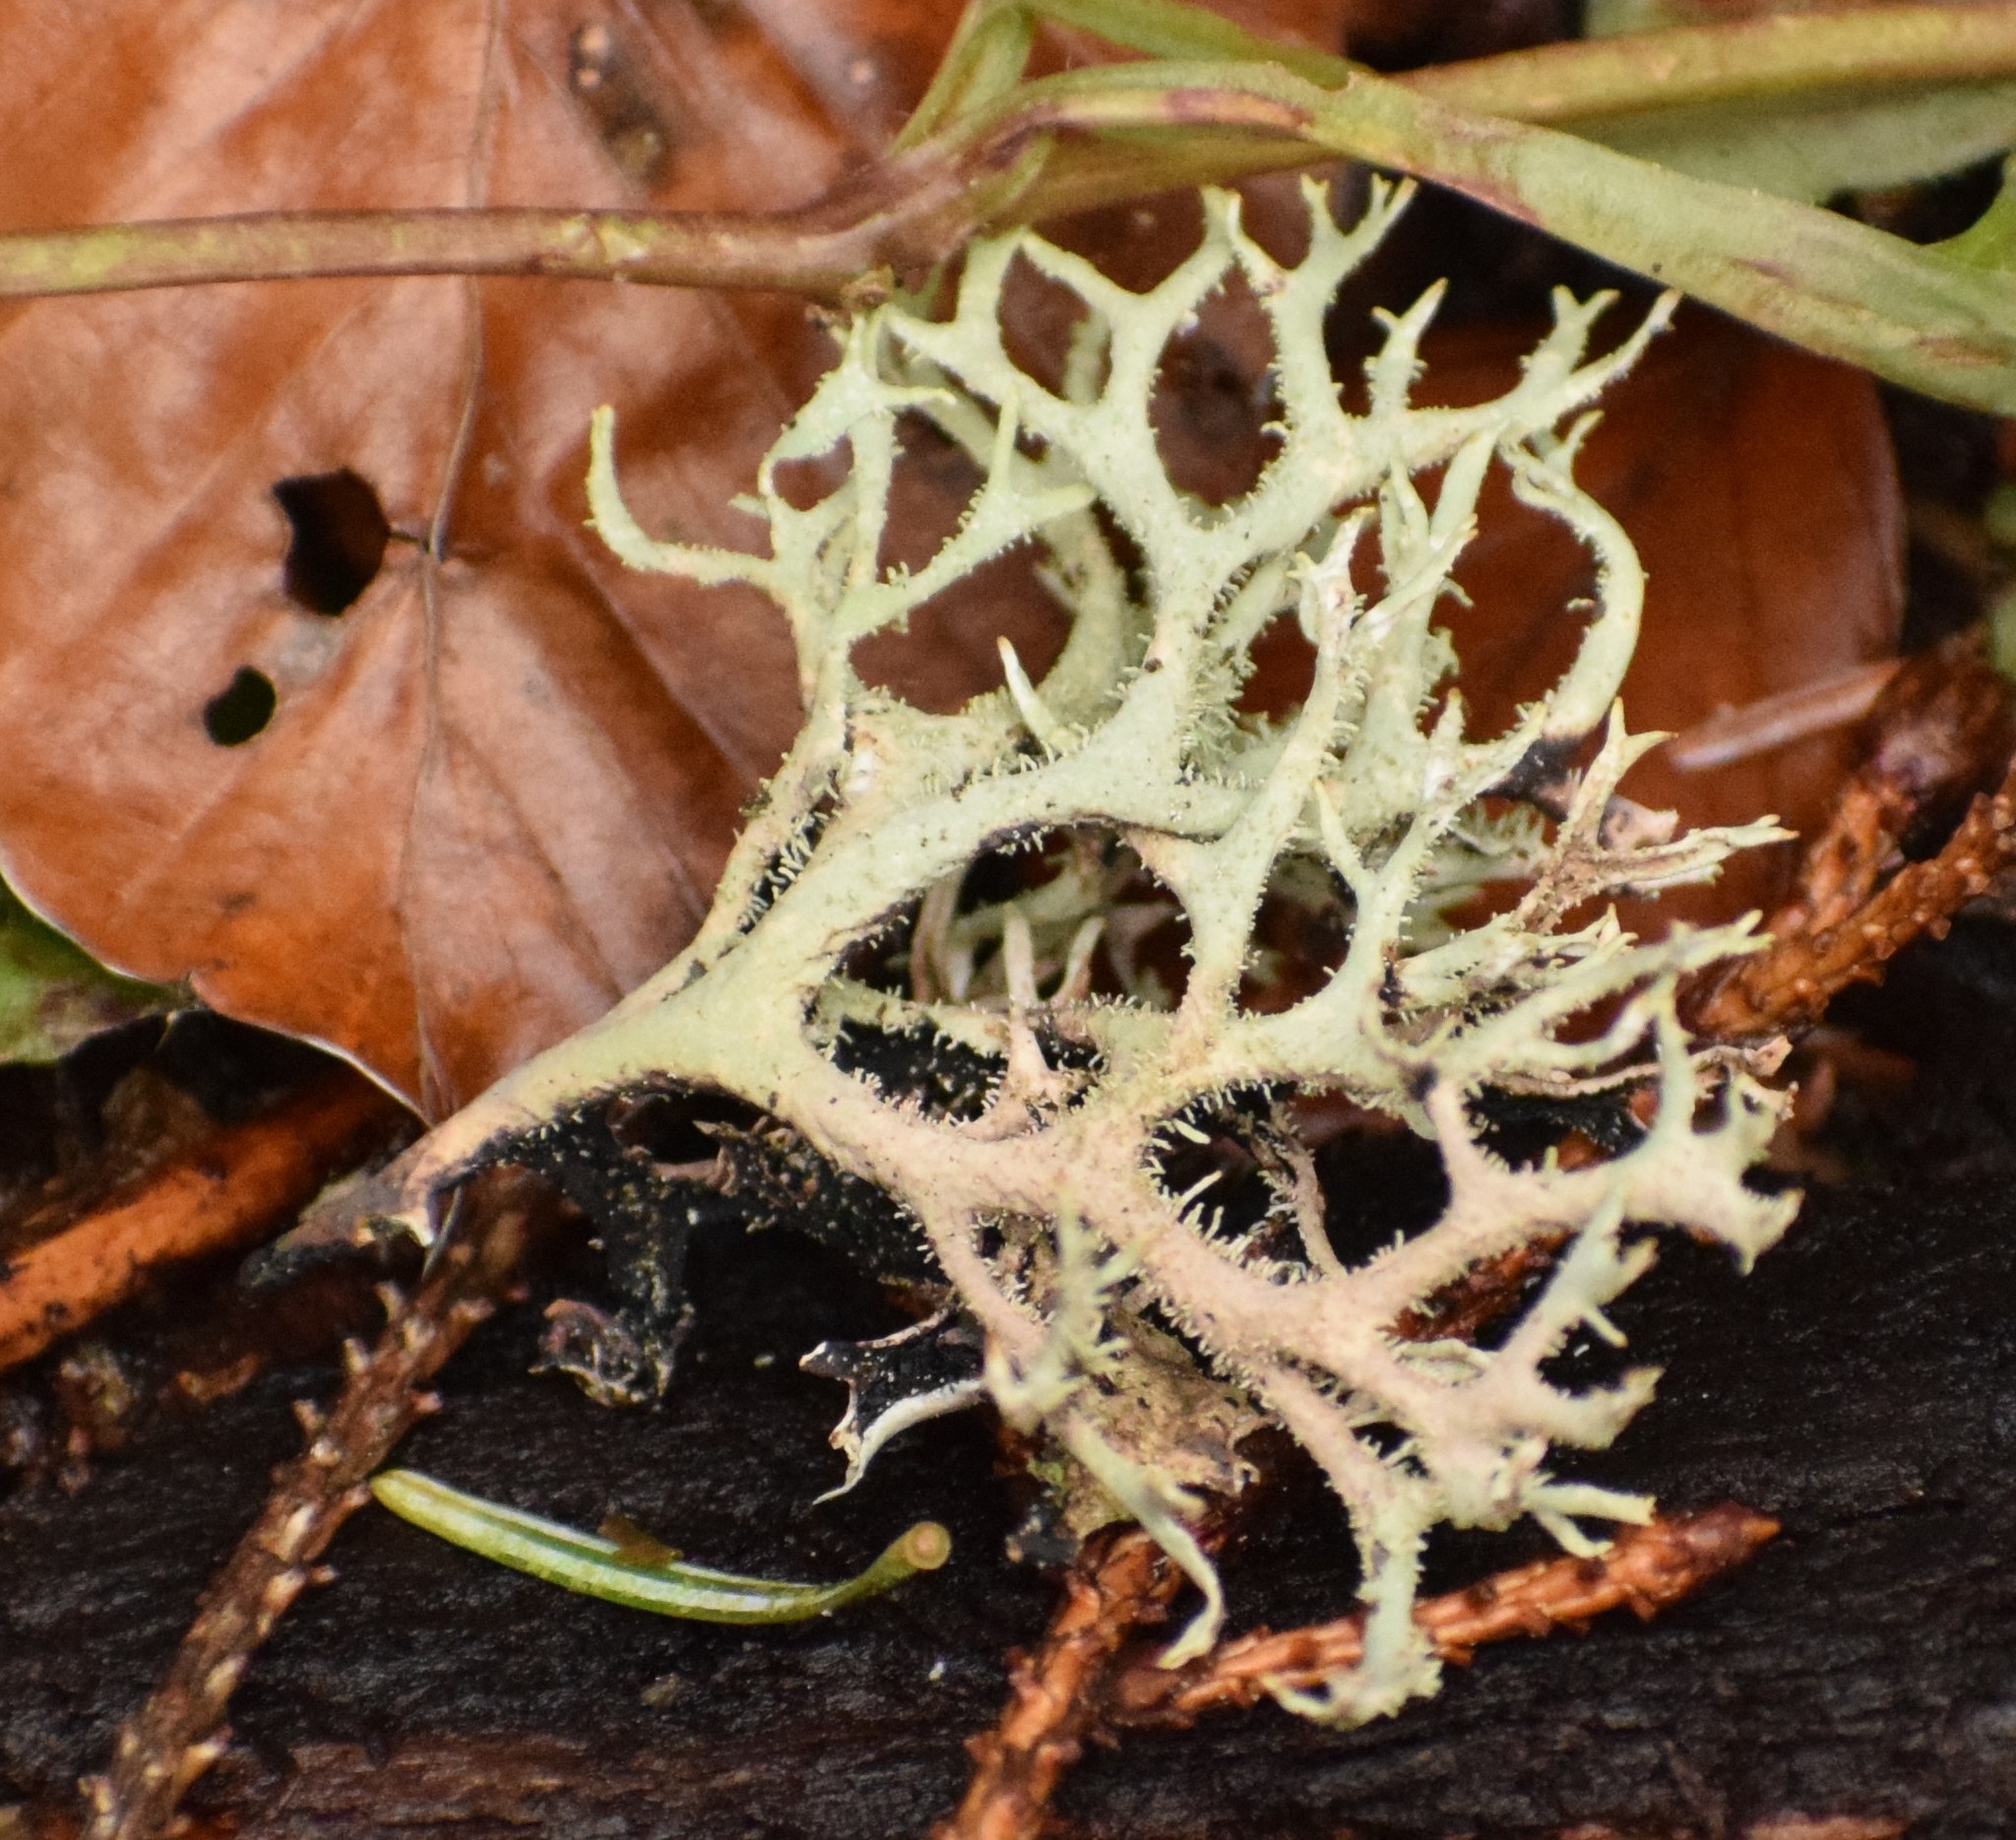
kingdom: Fungi
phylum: Ascomycota
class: Lecanoromycetes
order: Lecanorales
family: Parmeliaceae
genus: Pseudevernia
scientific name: Pseudevernia furfuracea
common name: Tree moss
